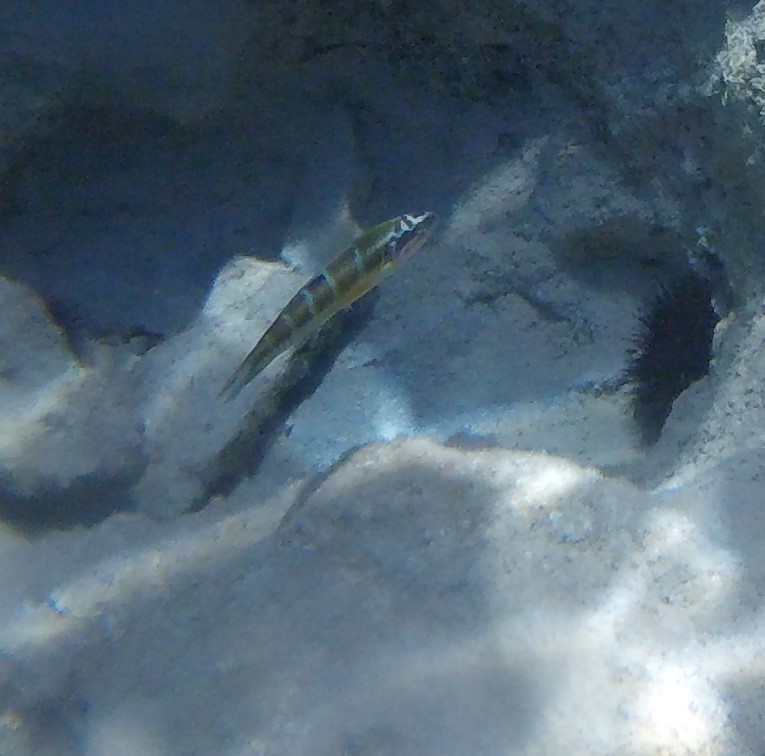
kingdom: Animalia
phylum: Chordata
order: Perciformes
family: Labridae
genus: Thalassoma
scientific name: Thalassoma pavo
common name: Ornate wrasse
